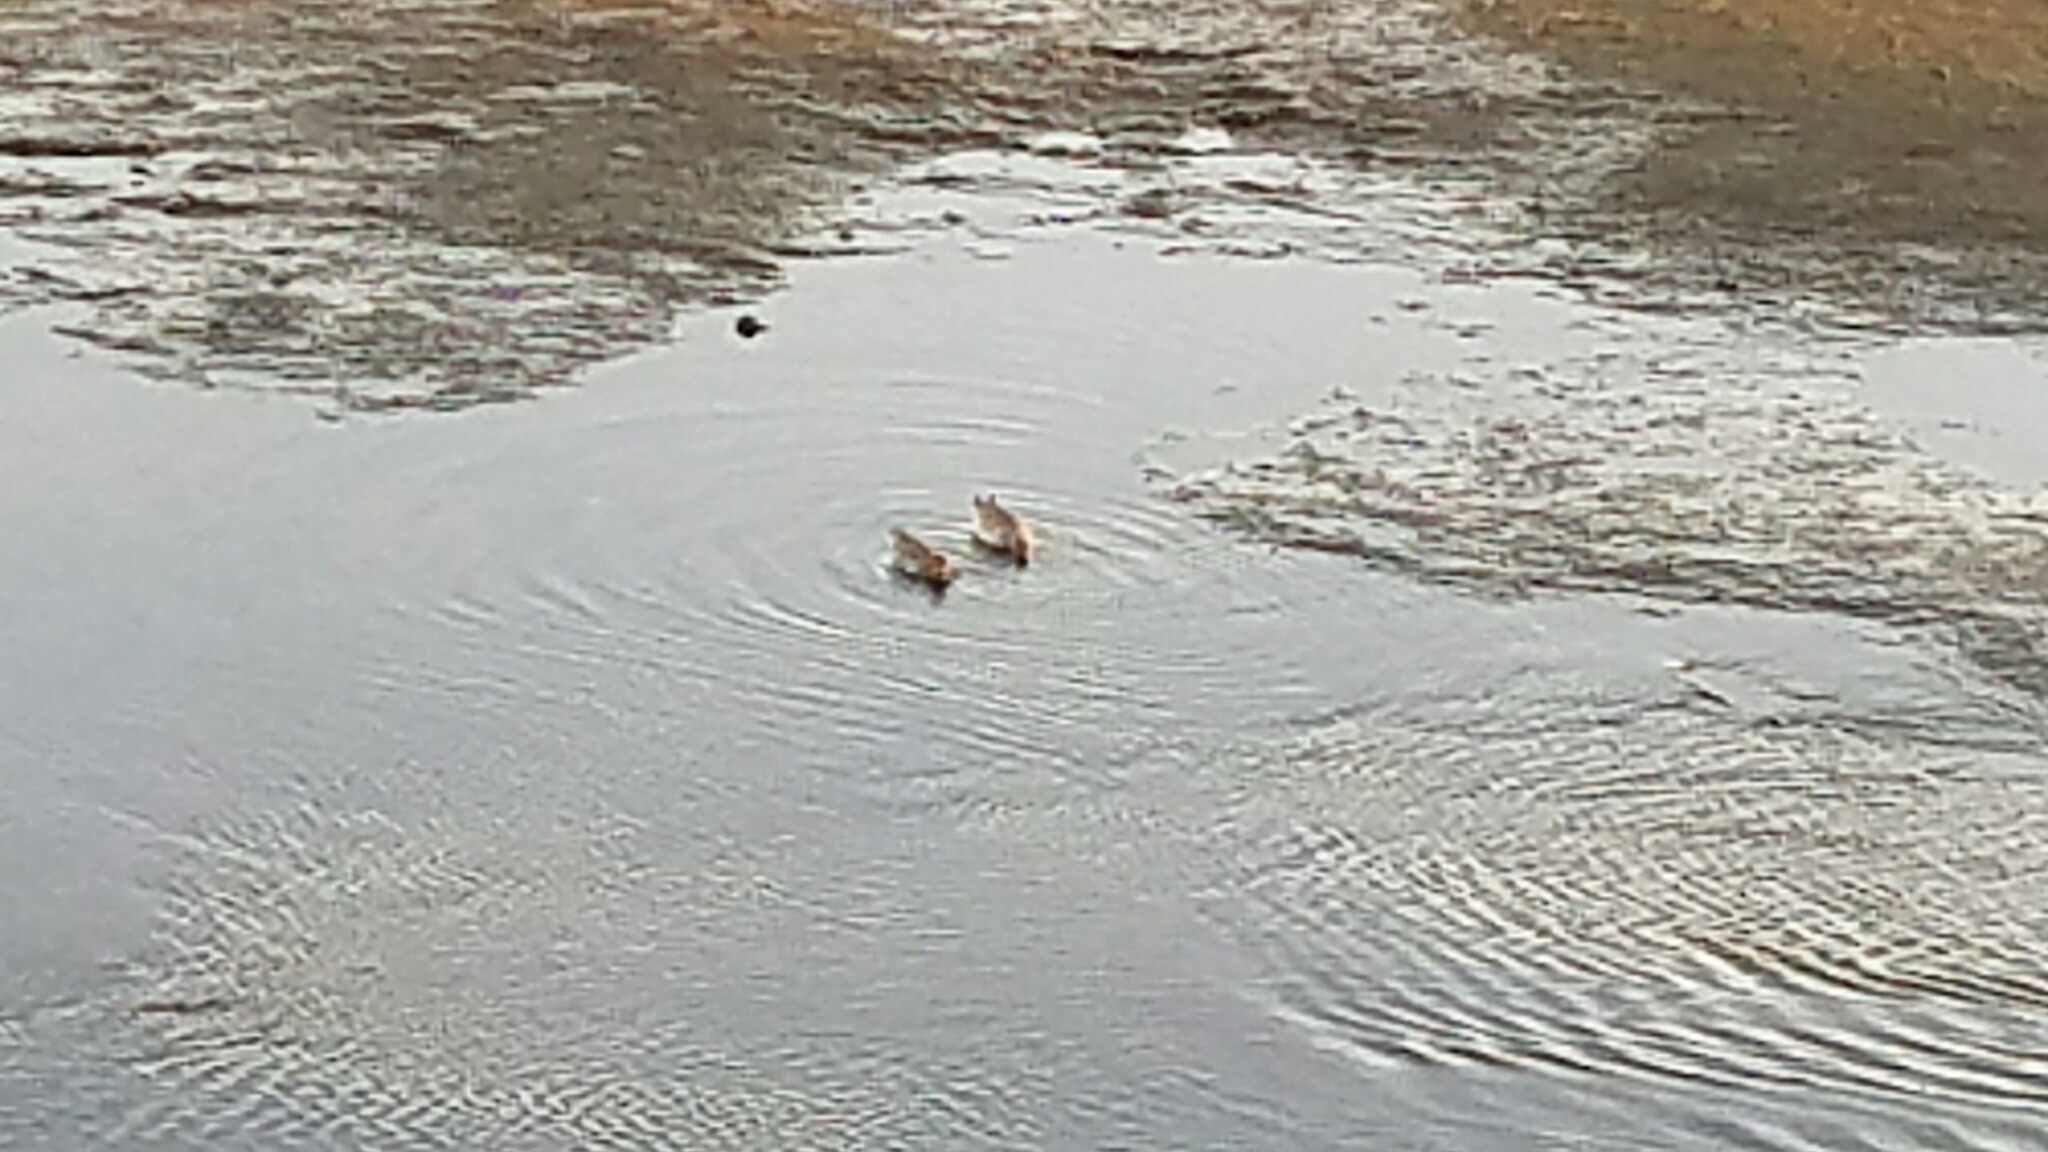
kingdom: Animalia
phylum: Chordata
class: Aves
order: Anseriformes
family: Anatidae
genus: Anas
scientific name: Anas crecca
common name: Eurasian teal
